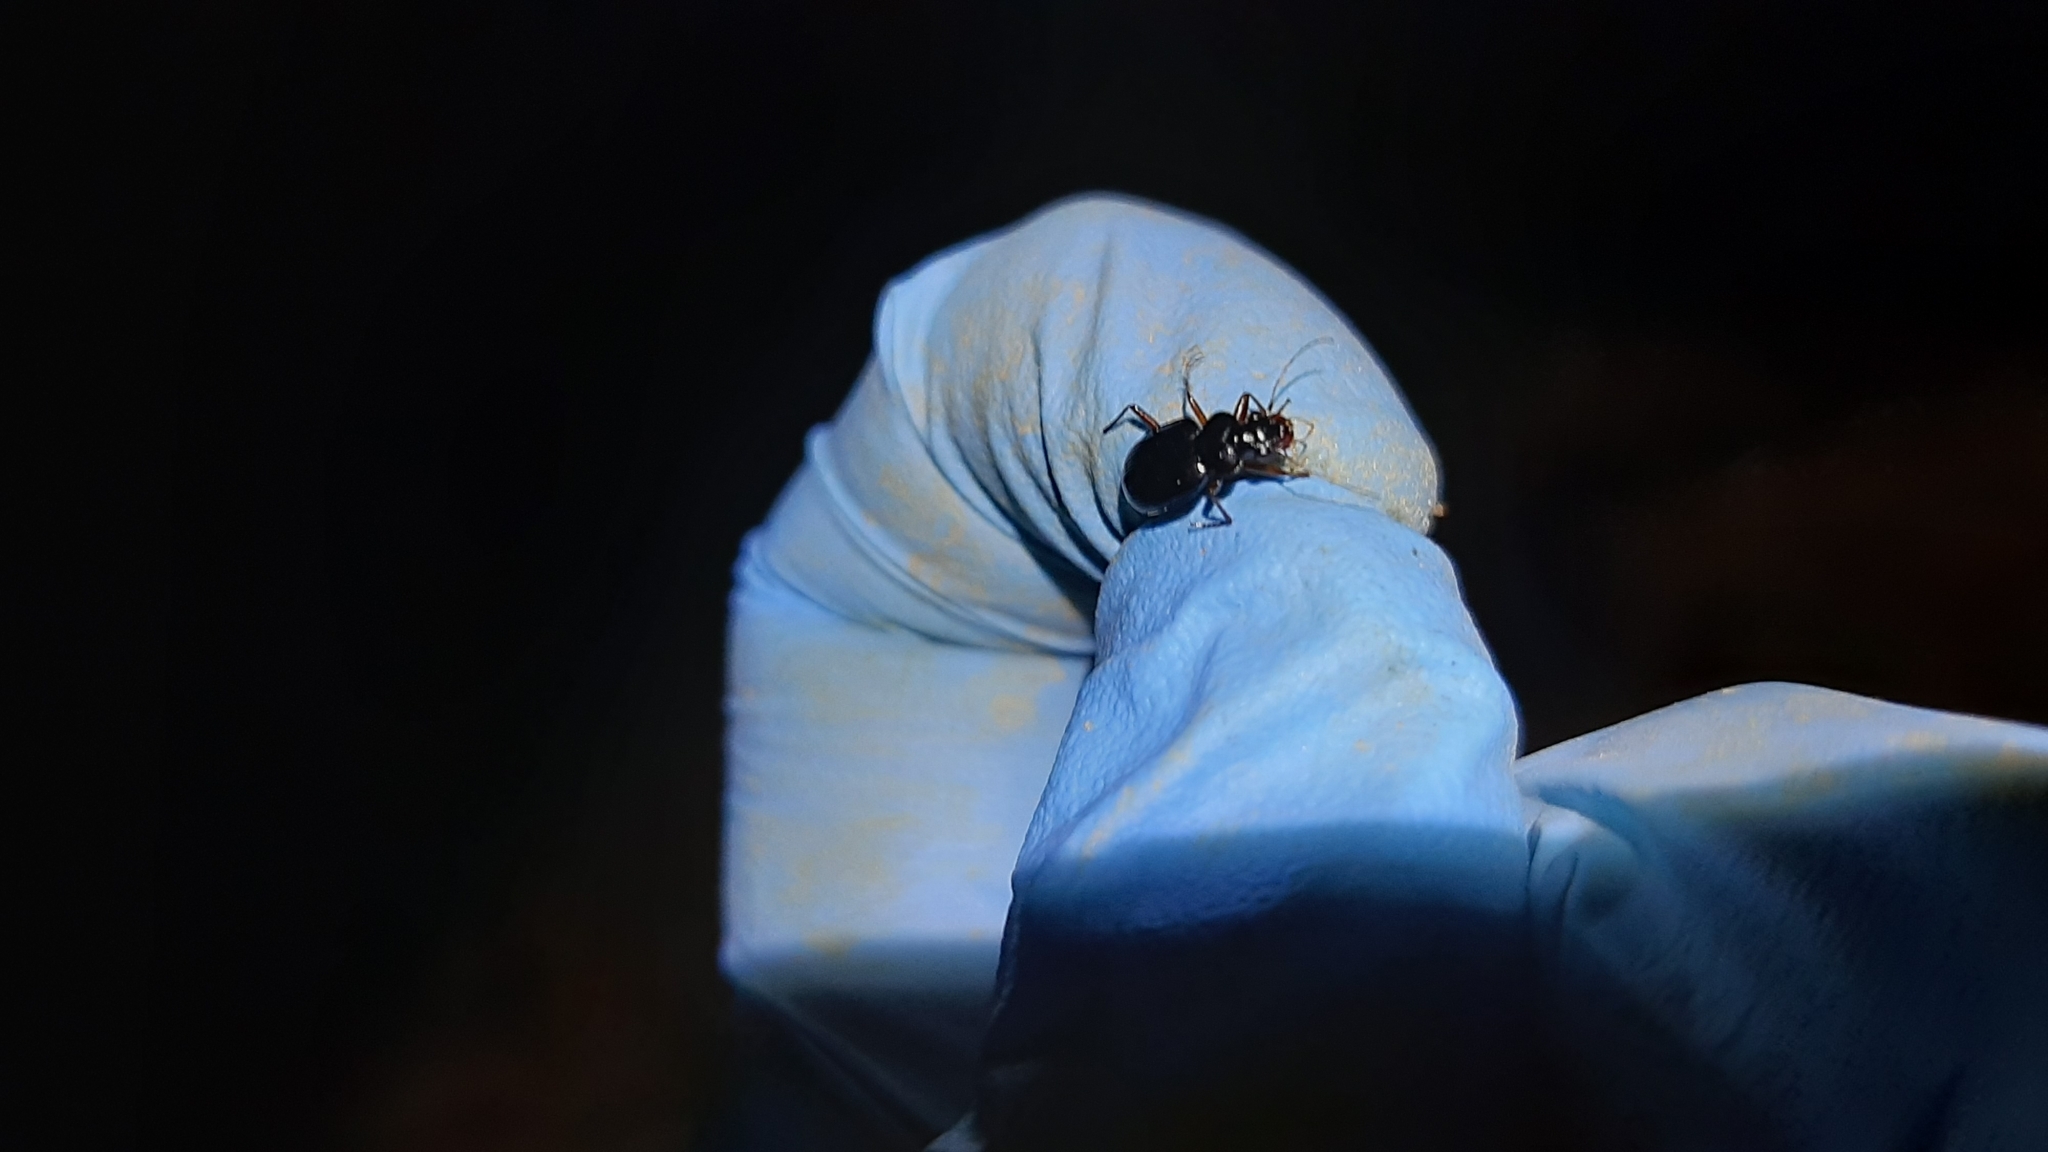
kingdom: Animalia
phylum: Arthropoda
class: Insecta
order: Coleoptera
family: Carabidae
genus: Leistus
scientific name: Leistus rufomarginatus
